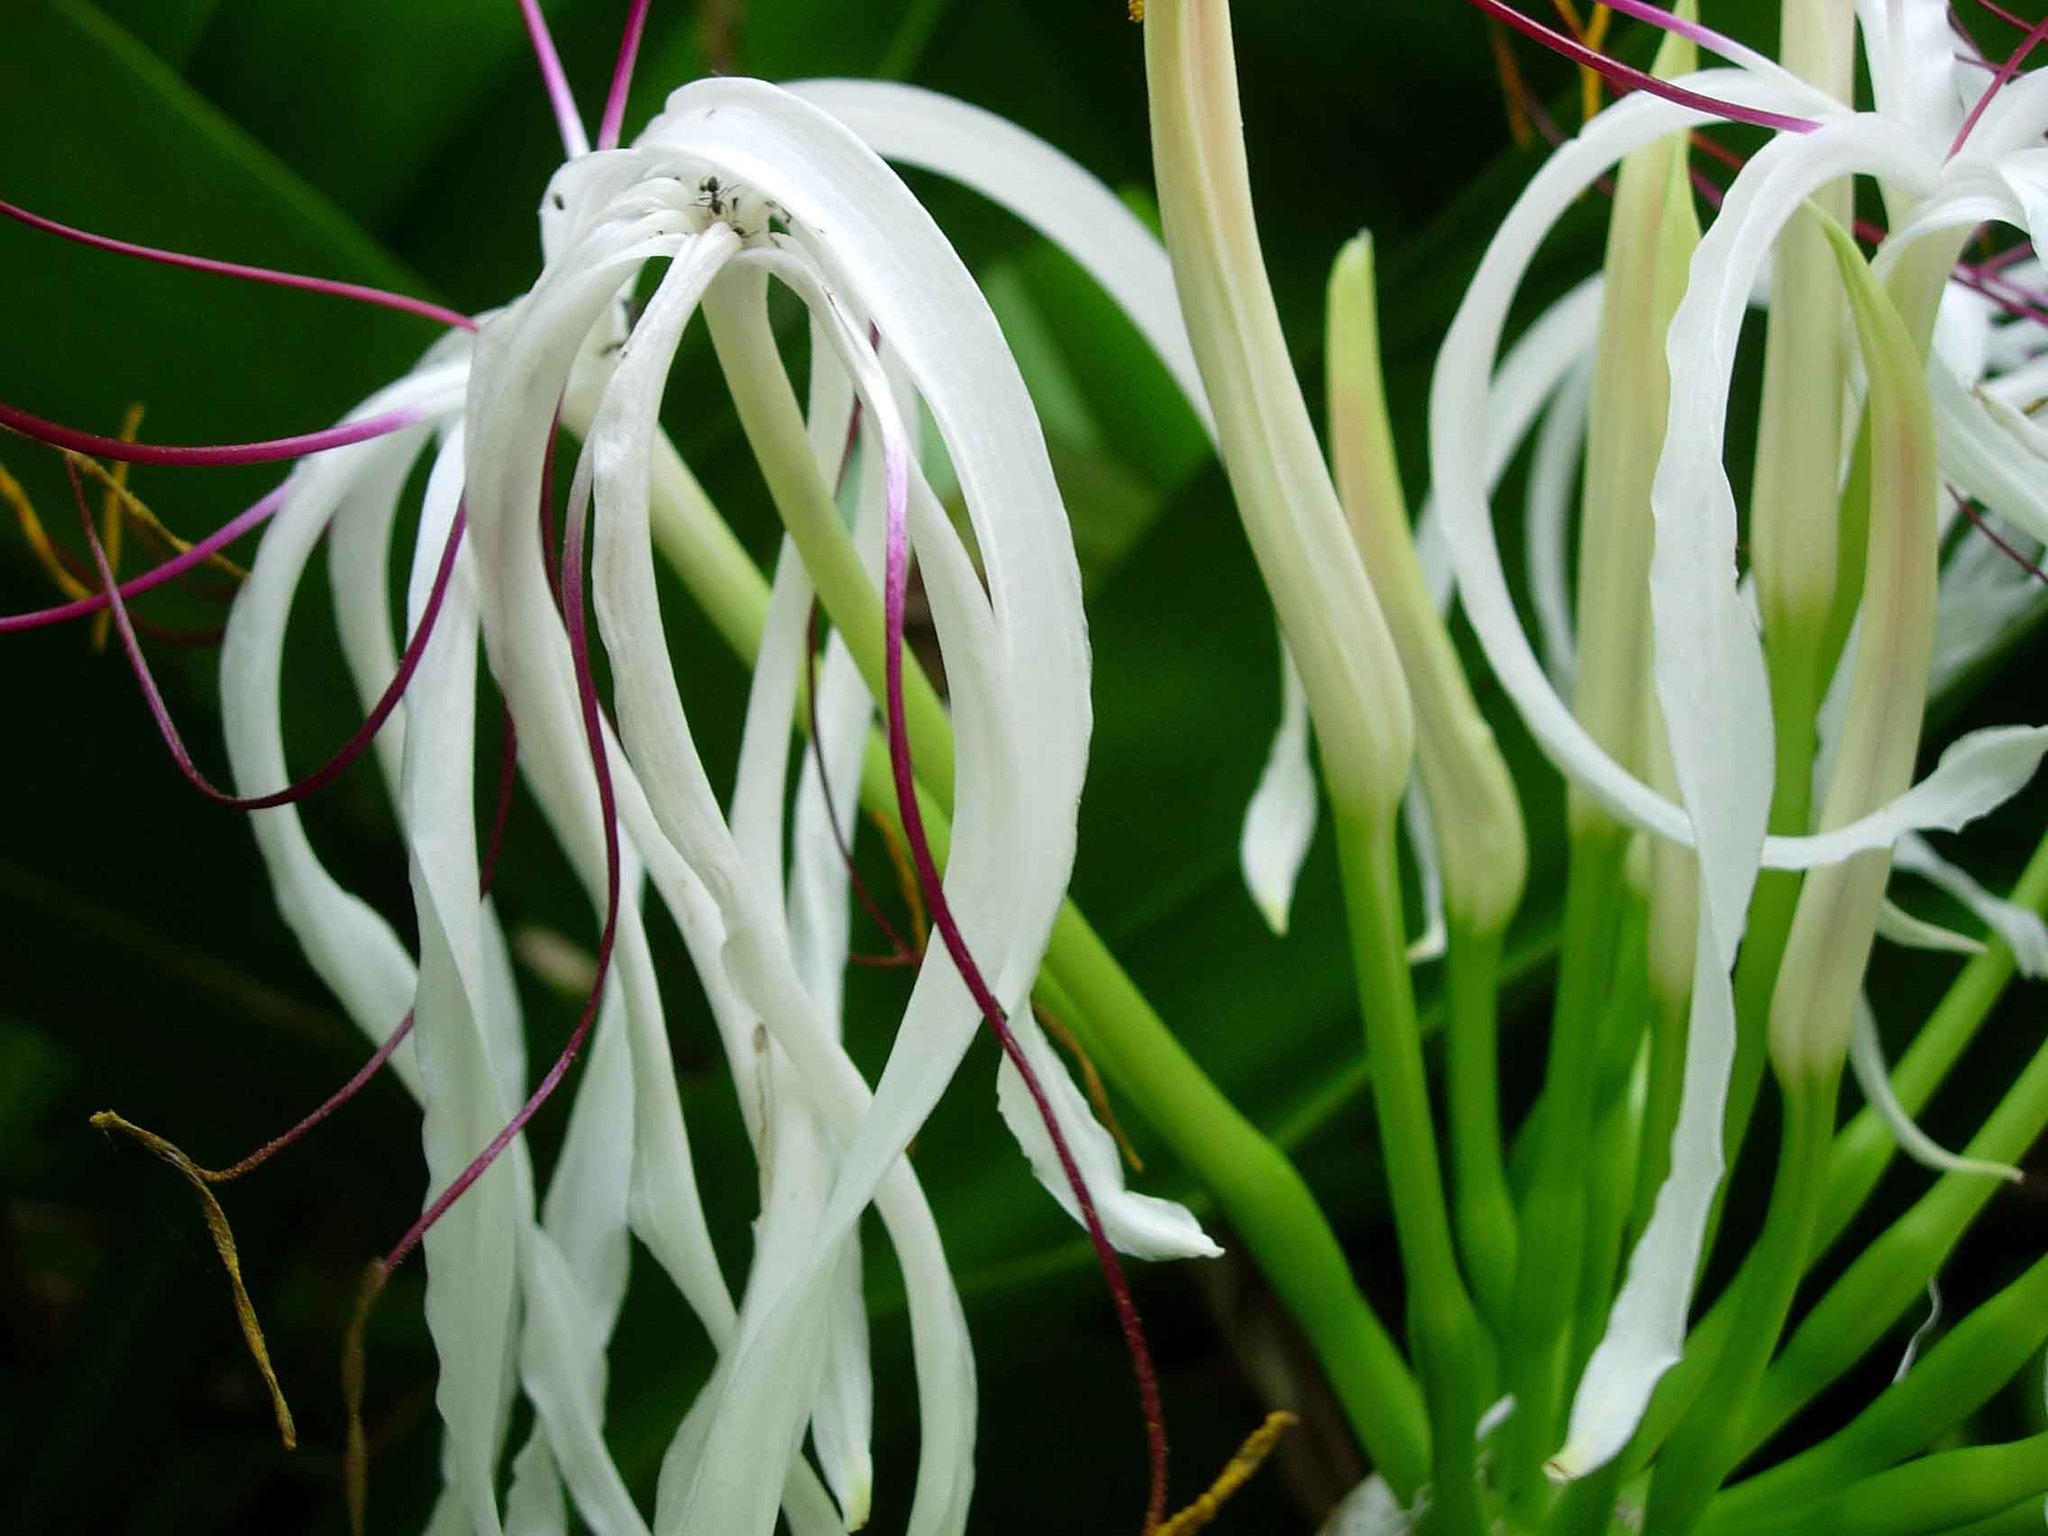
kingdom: Plantae
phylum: Tracheophyta
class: Liliopsida
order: Asparagales
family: Amaryllidaceae
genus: Crinum
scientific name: Crinum asiaticum
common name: Poisonbulb
